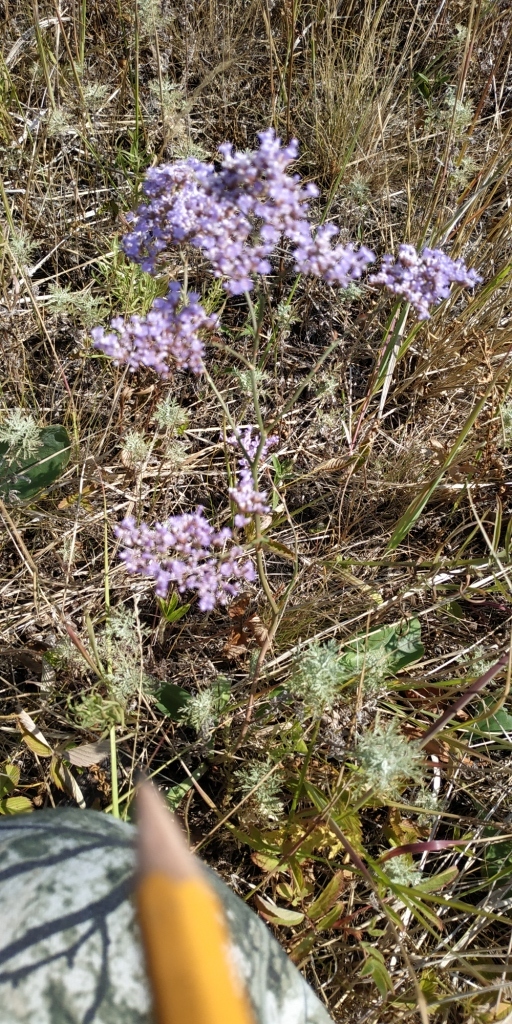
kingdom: Plantae
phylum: Tracheophyta
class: Magnoliopsida
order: Caryophyllales
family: Plumbaginaceae
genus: Limonium
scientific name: Limonium gmelini
